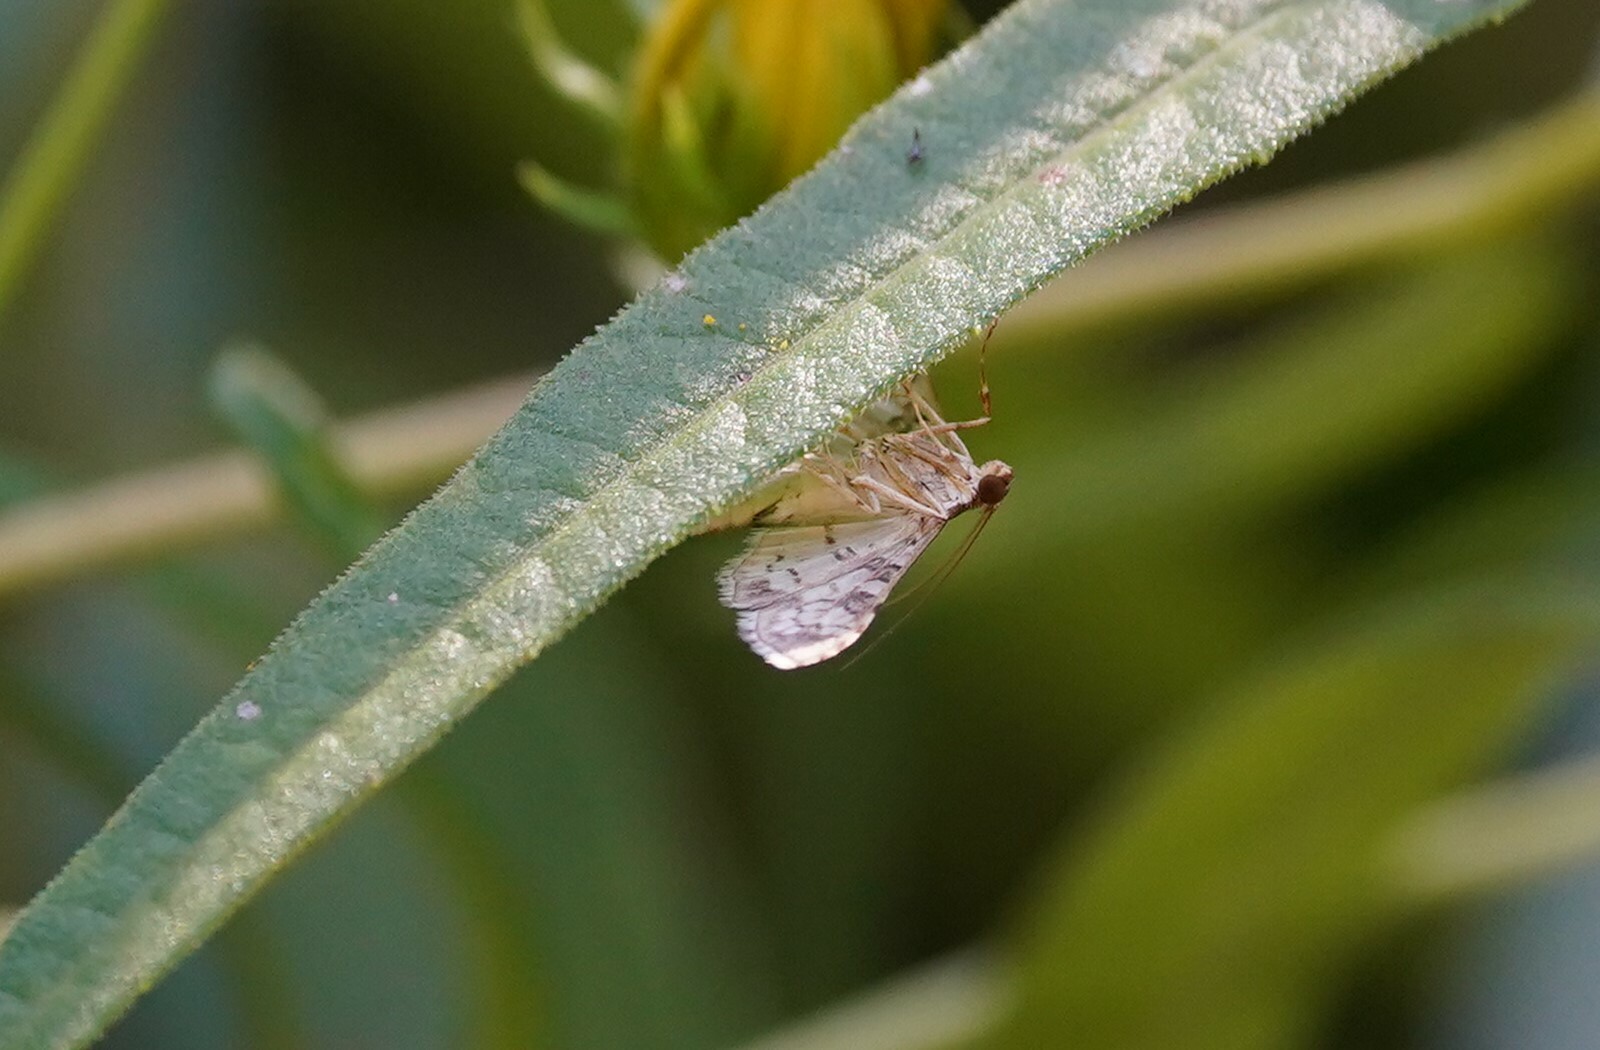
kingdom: Animalia
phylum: Arthropoda
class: Insecta
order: Lepidoptera
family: Crambidae
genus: Samea
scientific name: Samea ecclesialis
